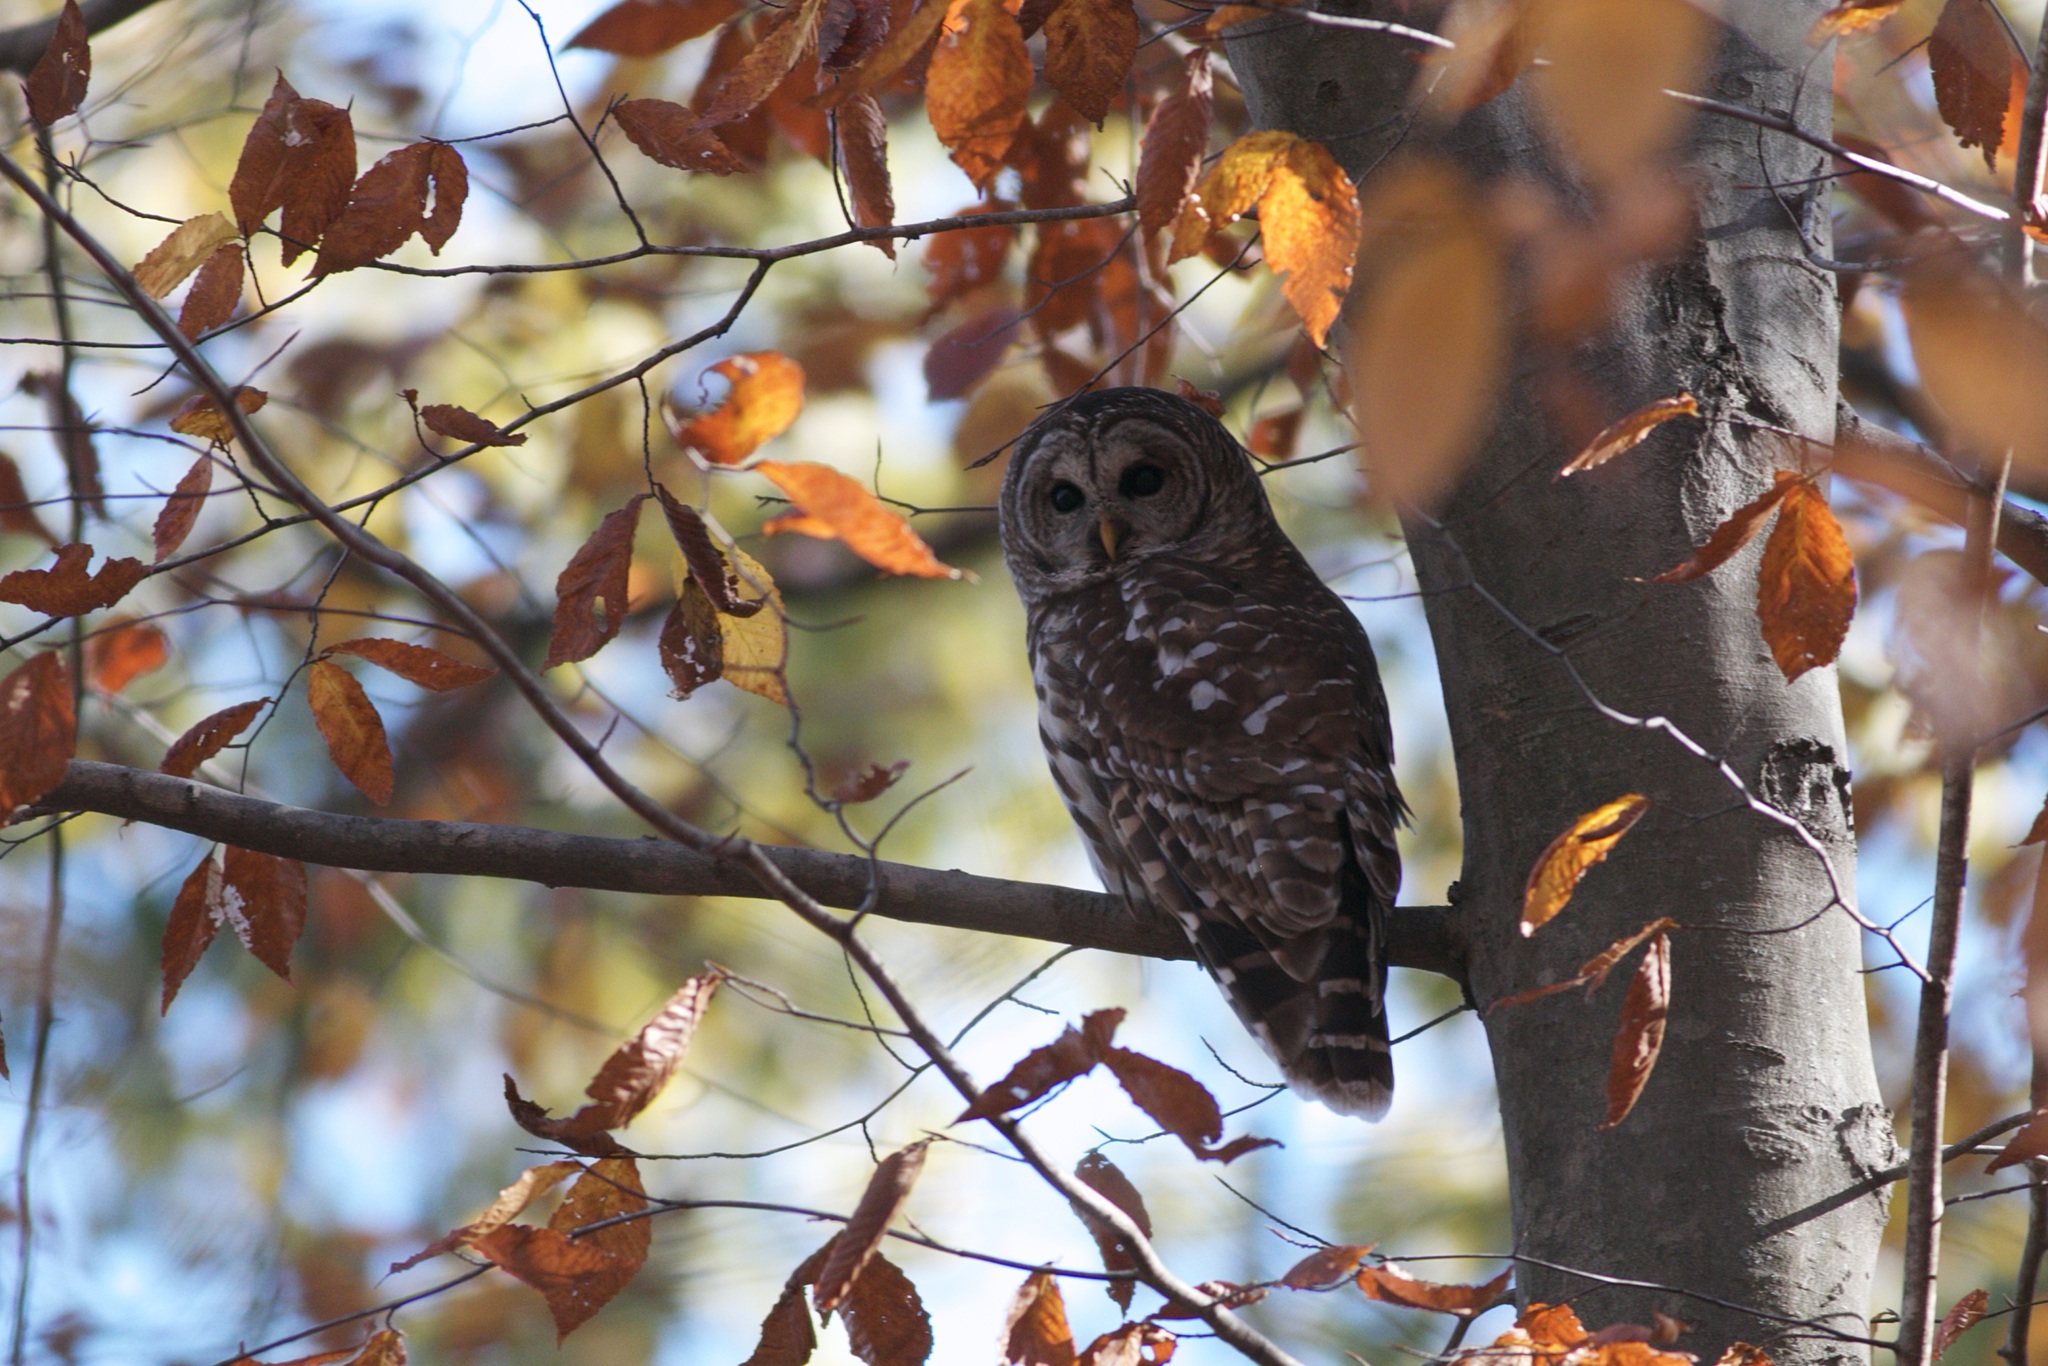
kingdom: Animalia
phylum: Chordata
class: Aves
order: Strigiformes
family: Strigidae
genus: Strix
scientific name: Strix varia
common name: Barred owl
